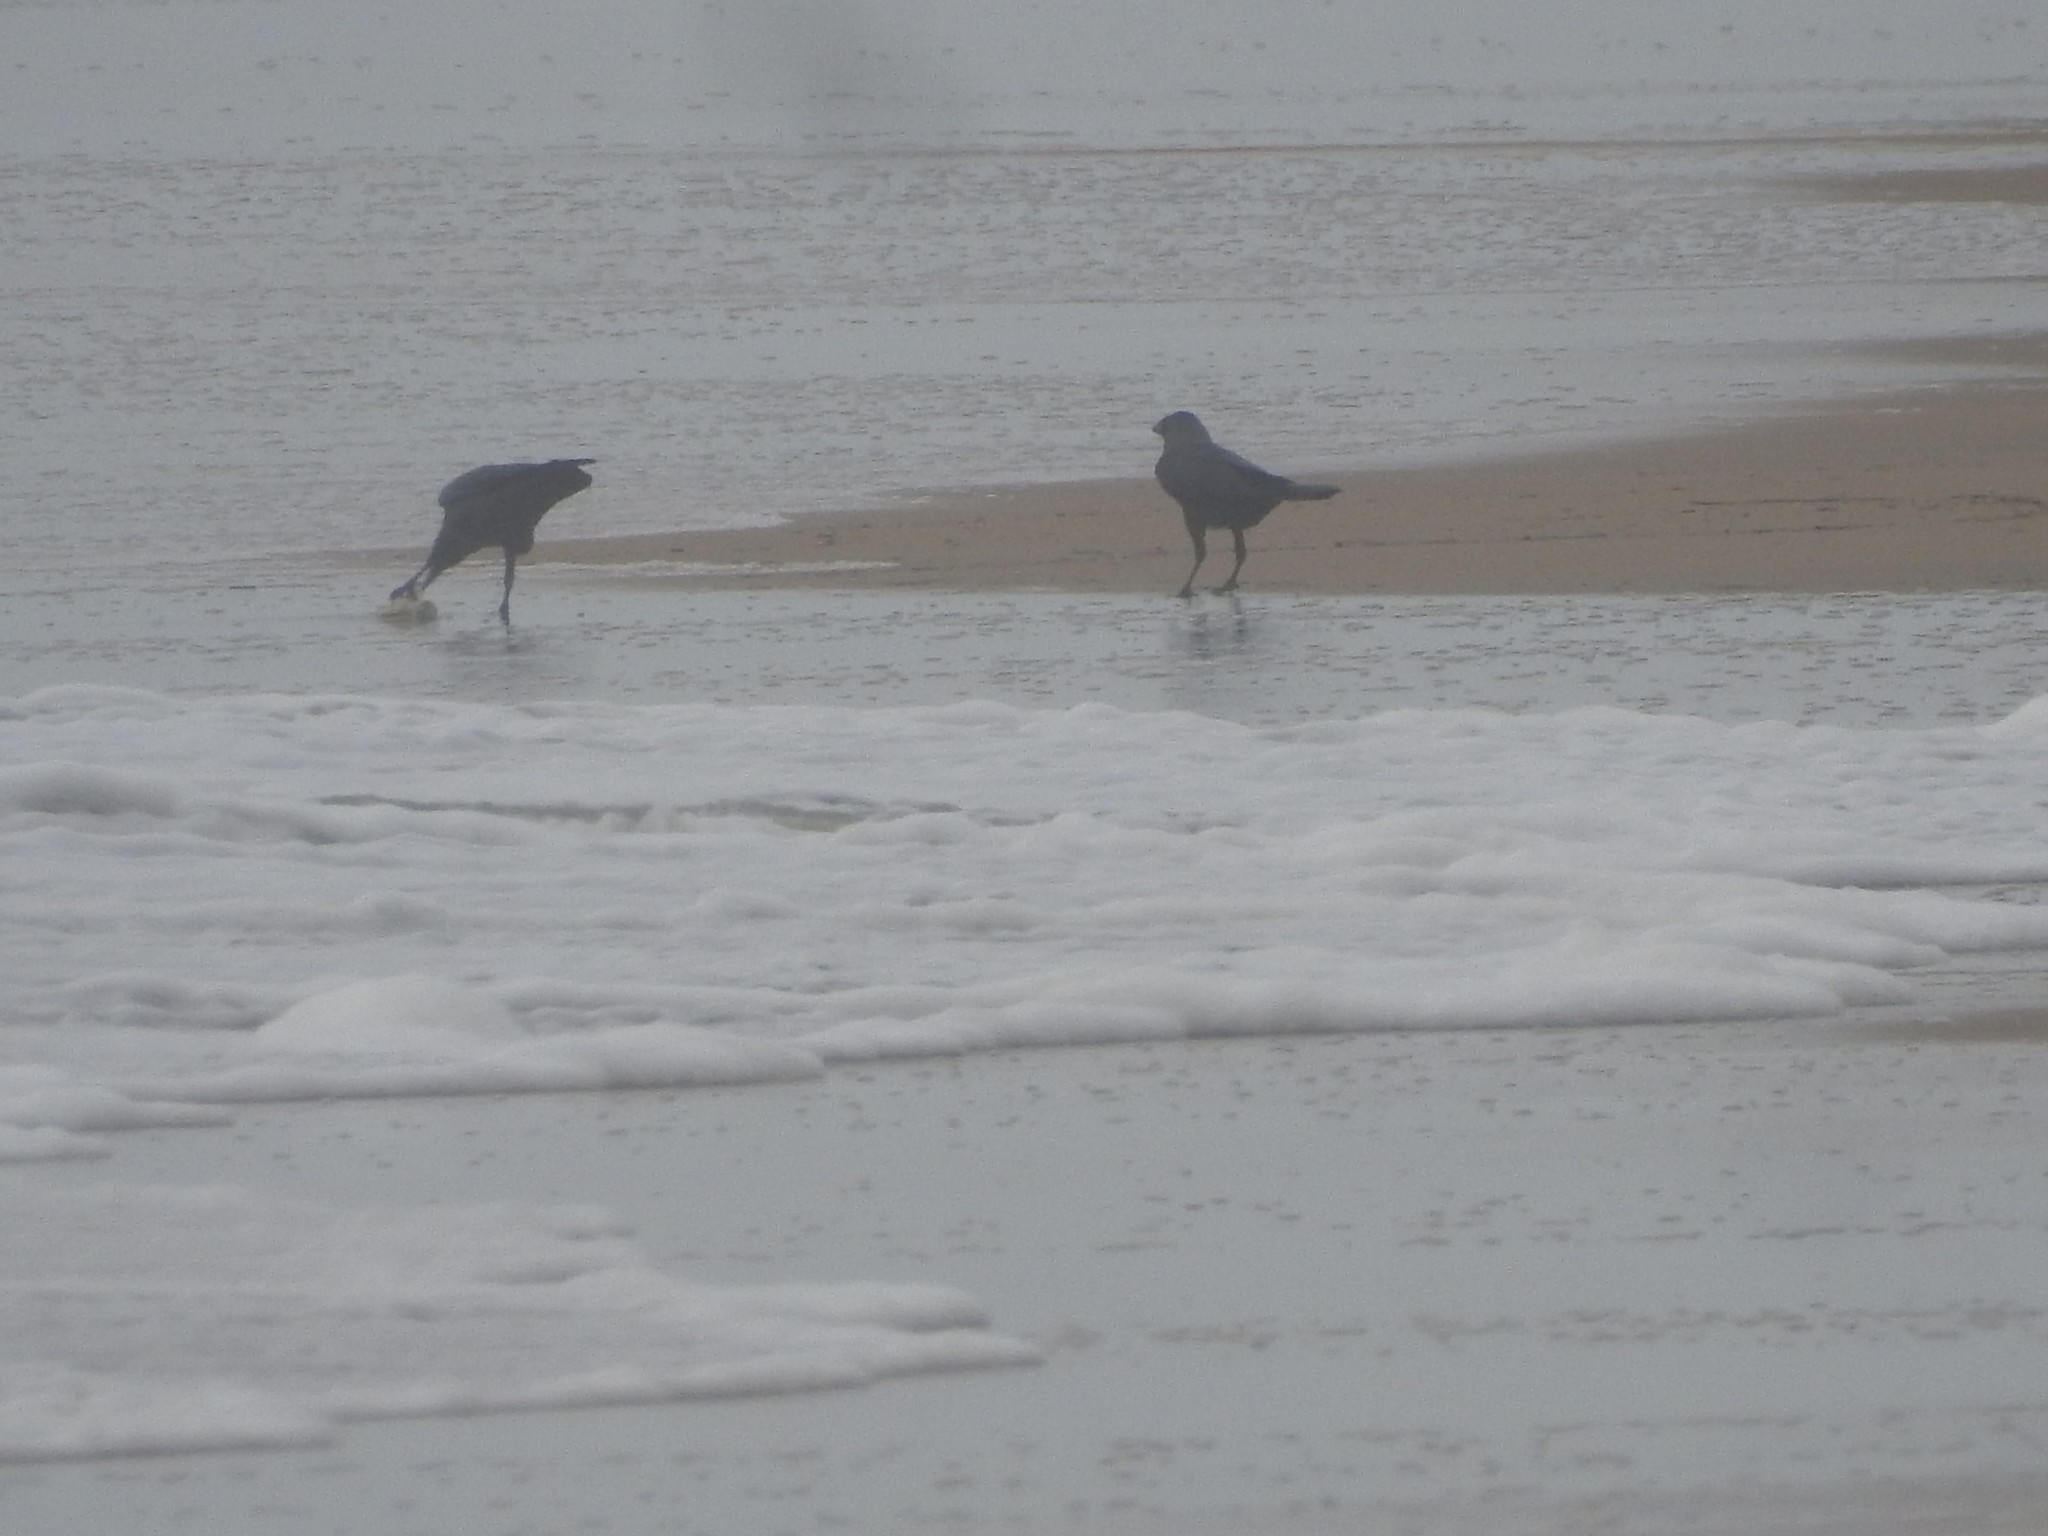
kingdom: Animalia
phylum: Chordata
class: Aves
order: Passeriformes
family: Corvidae
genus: Corvus
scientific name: Corvus splendens
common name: House crow
